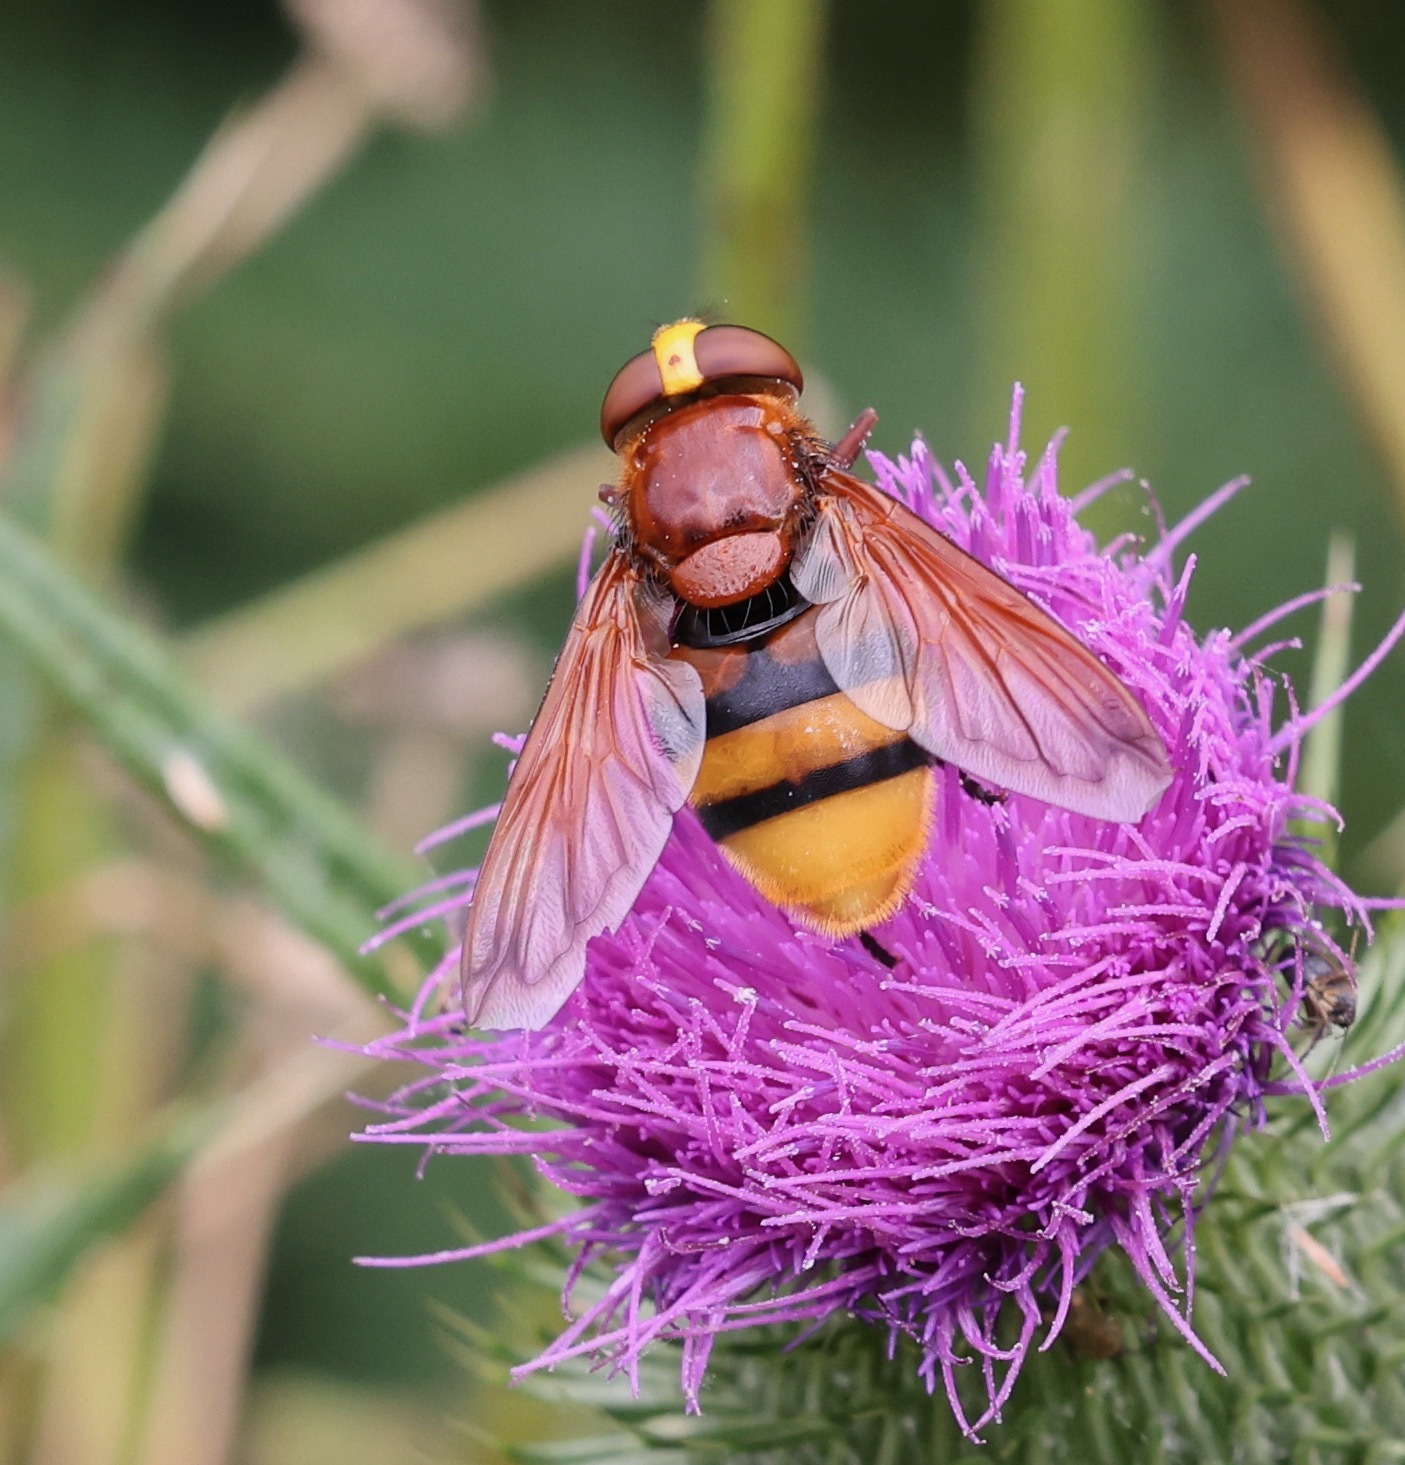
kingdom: Animalia
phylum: Arthropoda
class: Insecta
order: Diptera
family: Syrphidae
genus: Volucella
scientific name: Volucella zonaria
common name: Hornet hoverfly
